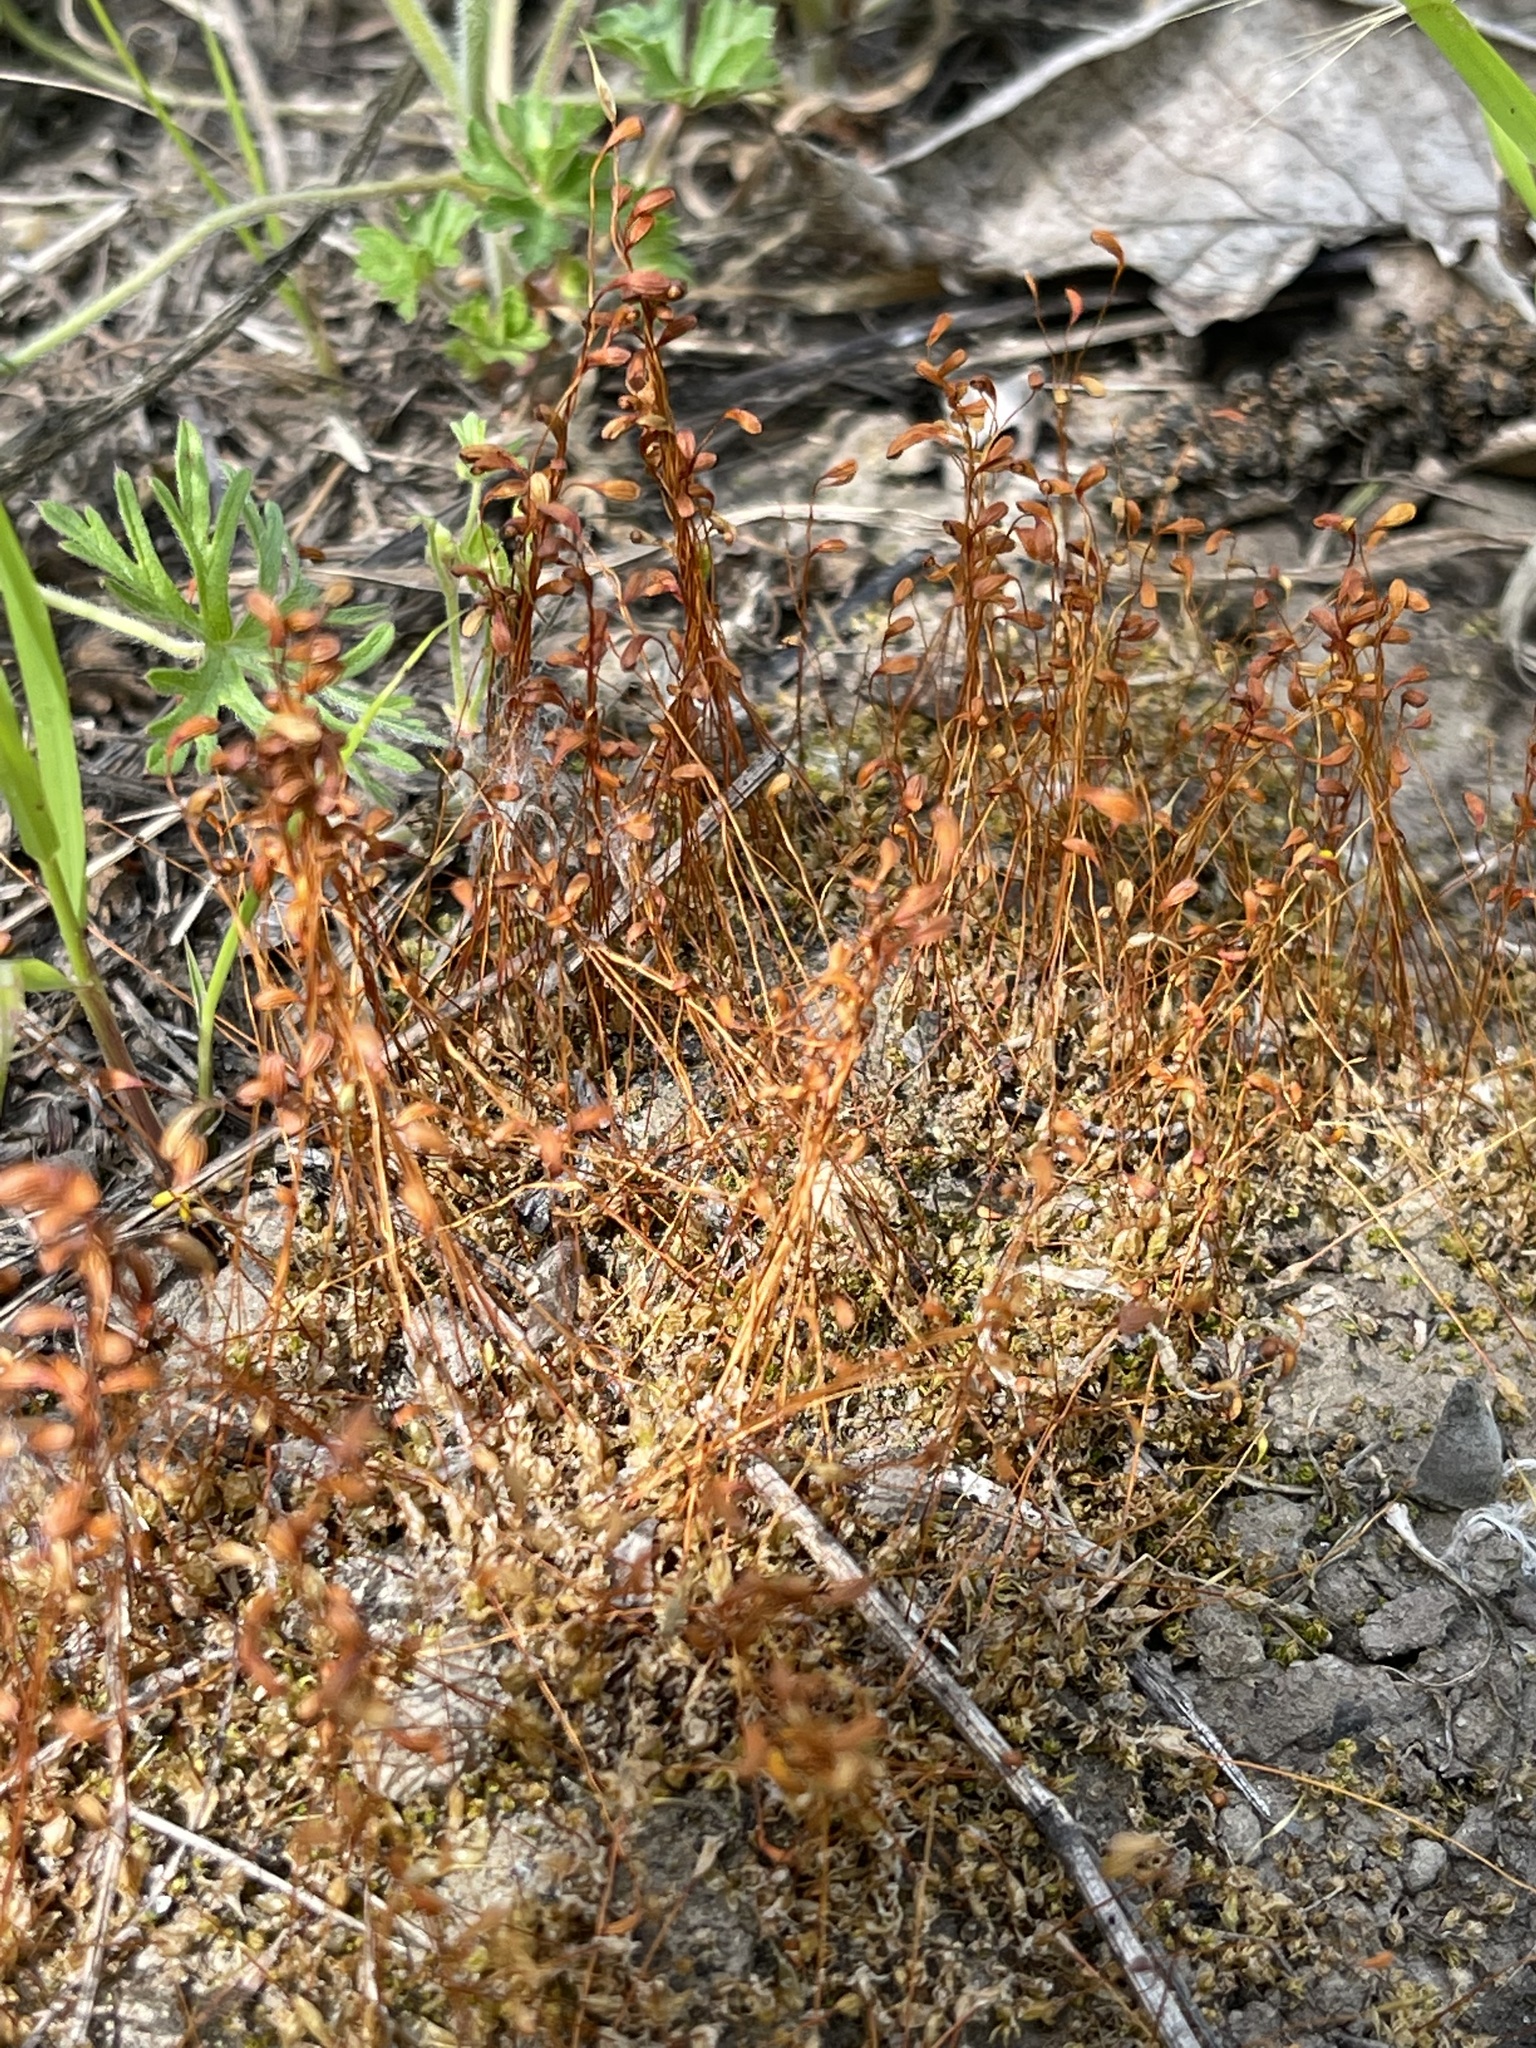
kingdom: Plantae
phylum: Bryophyta
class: Bryopsida
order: Funariales
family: Funariaceae
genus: Funaria
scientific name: Funaria hygrometrica
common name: Common cord moss
